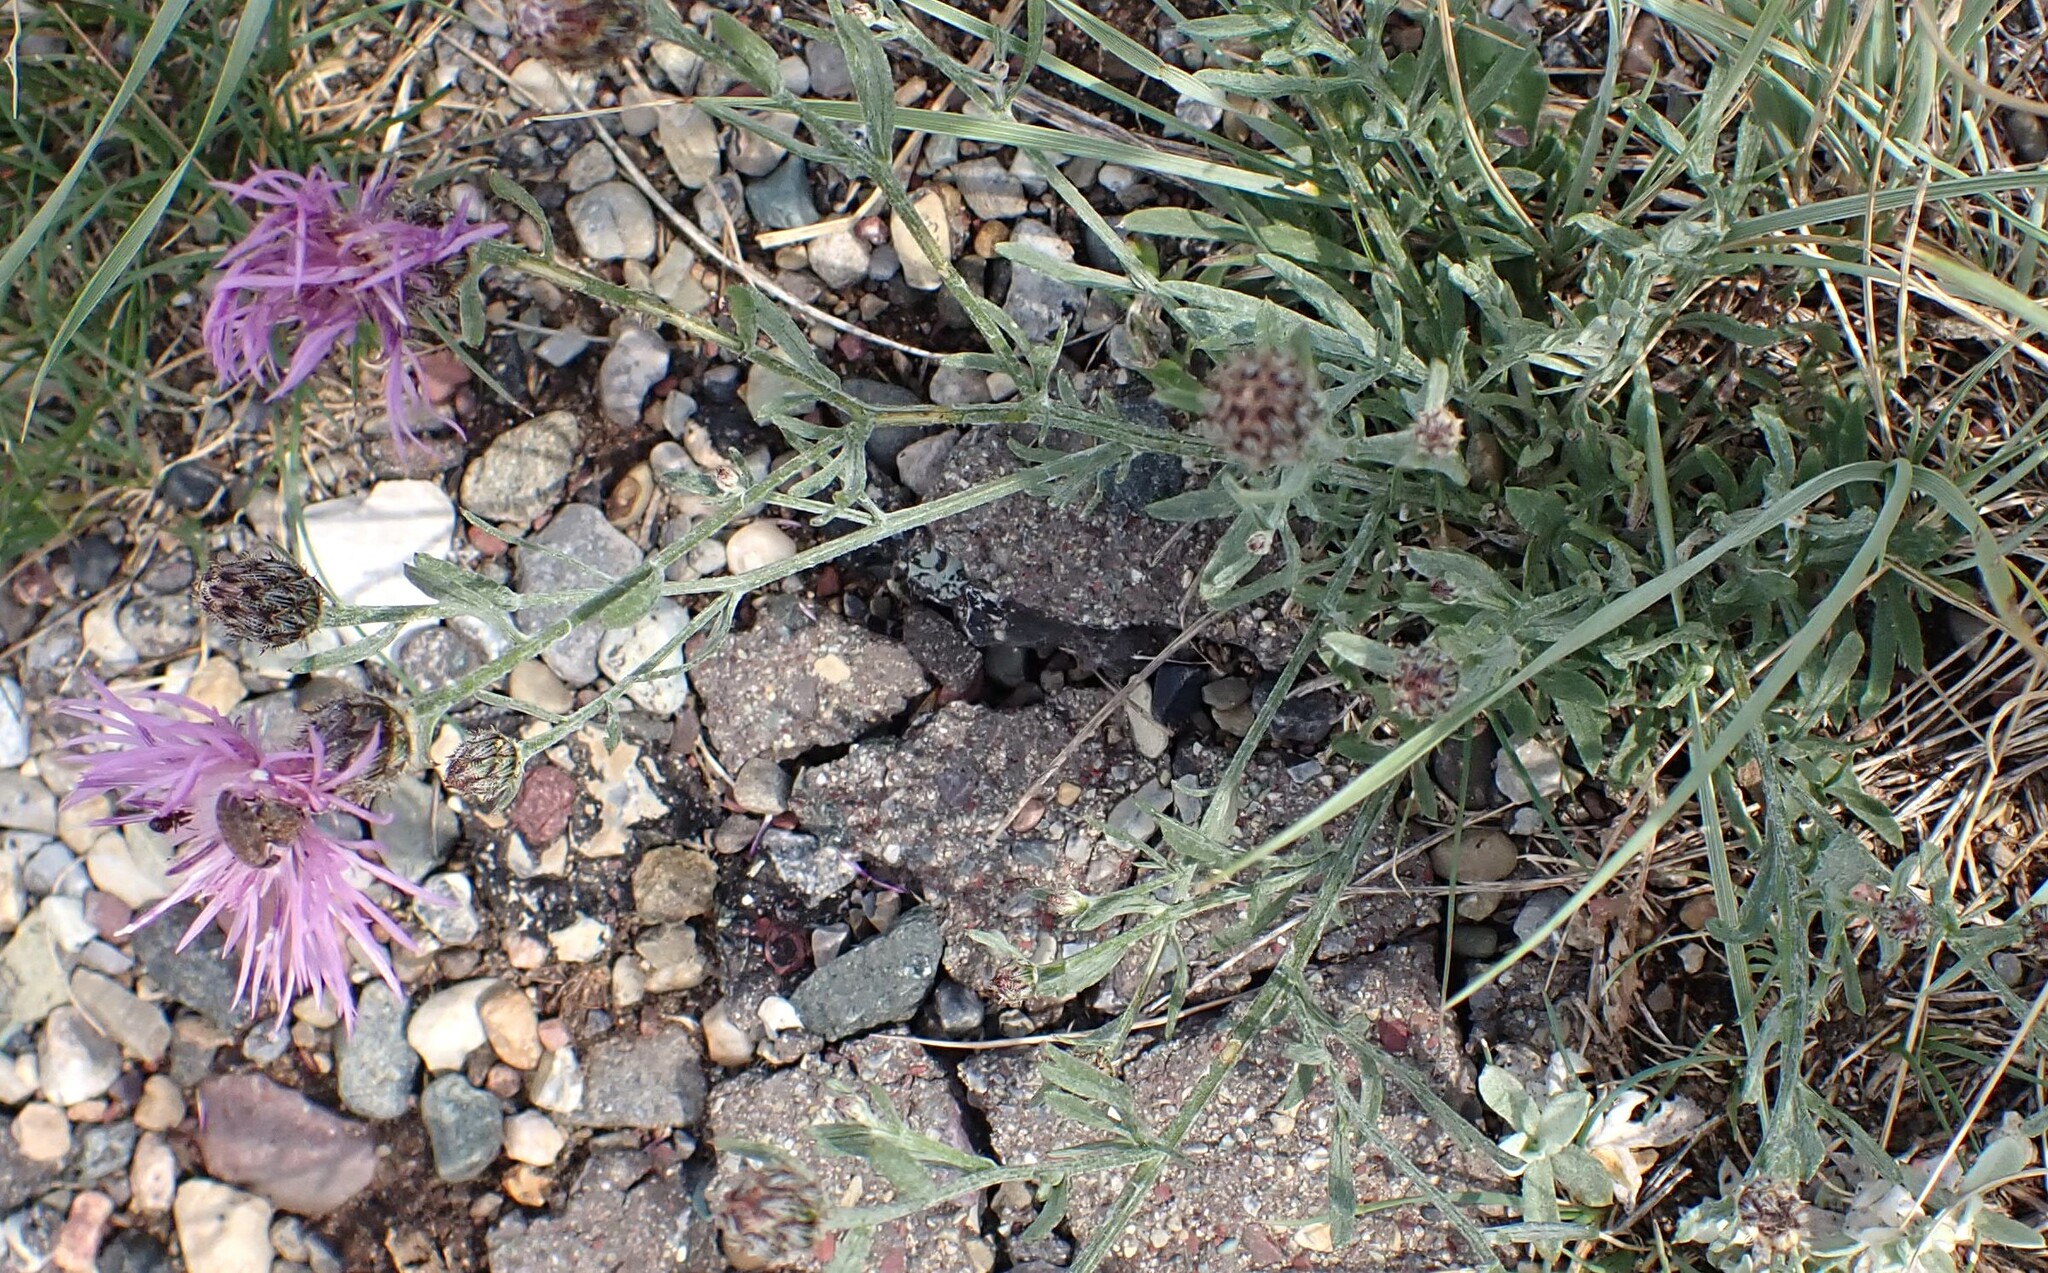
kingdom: Plantae
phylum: Tracheophyta
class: Magnoliopsida
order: Asterales
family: Asteraceae
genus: Centaurea
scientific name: Centaurea stoebe
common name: Spotted knapweed
